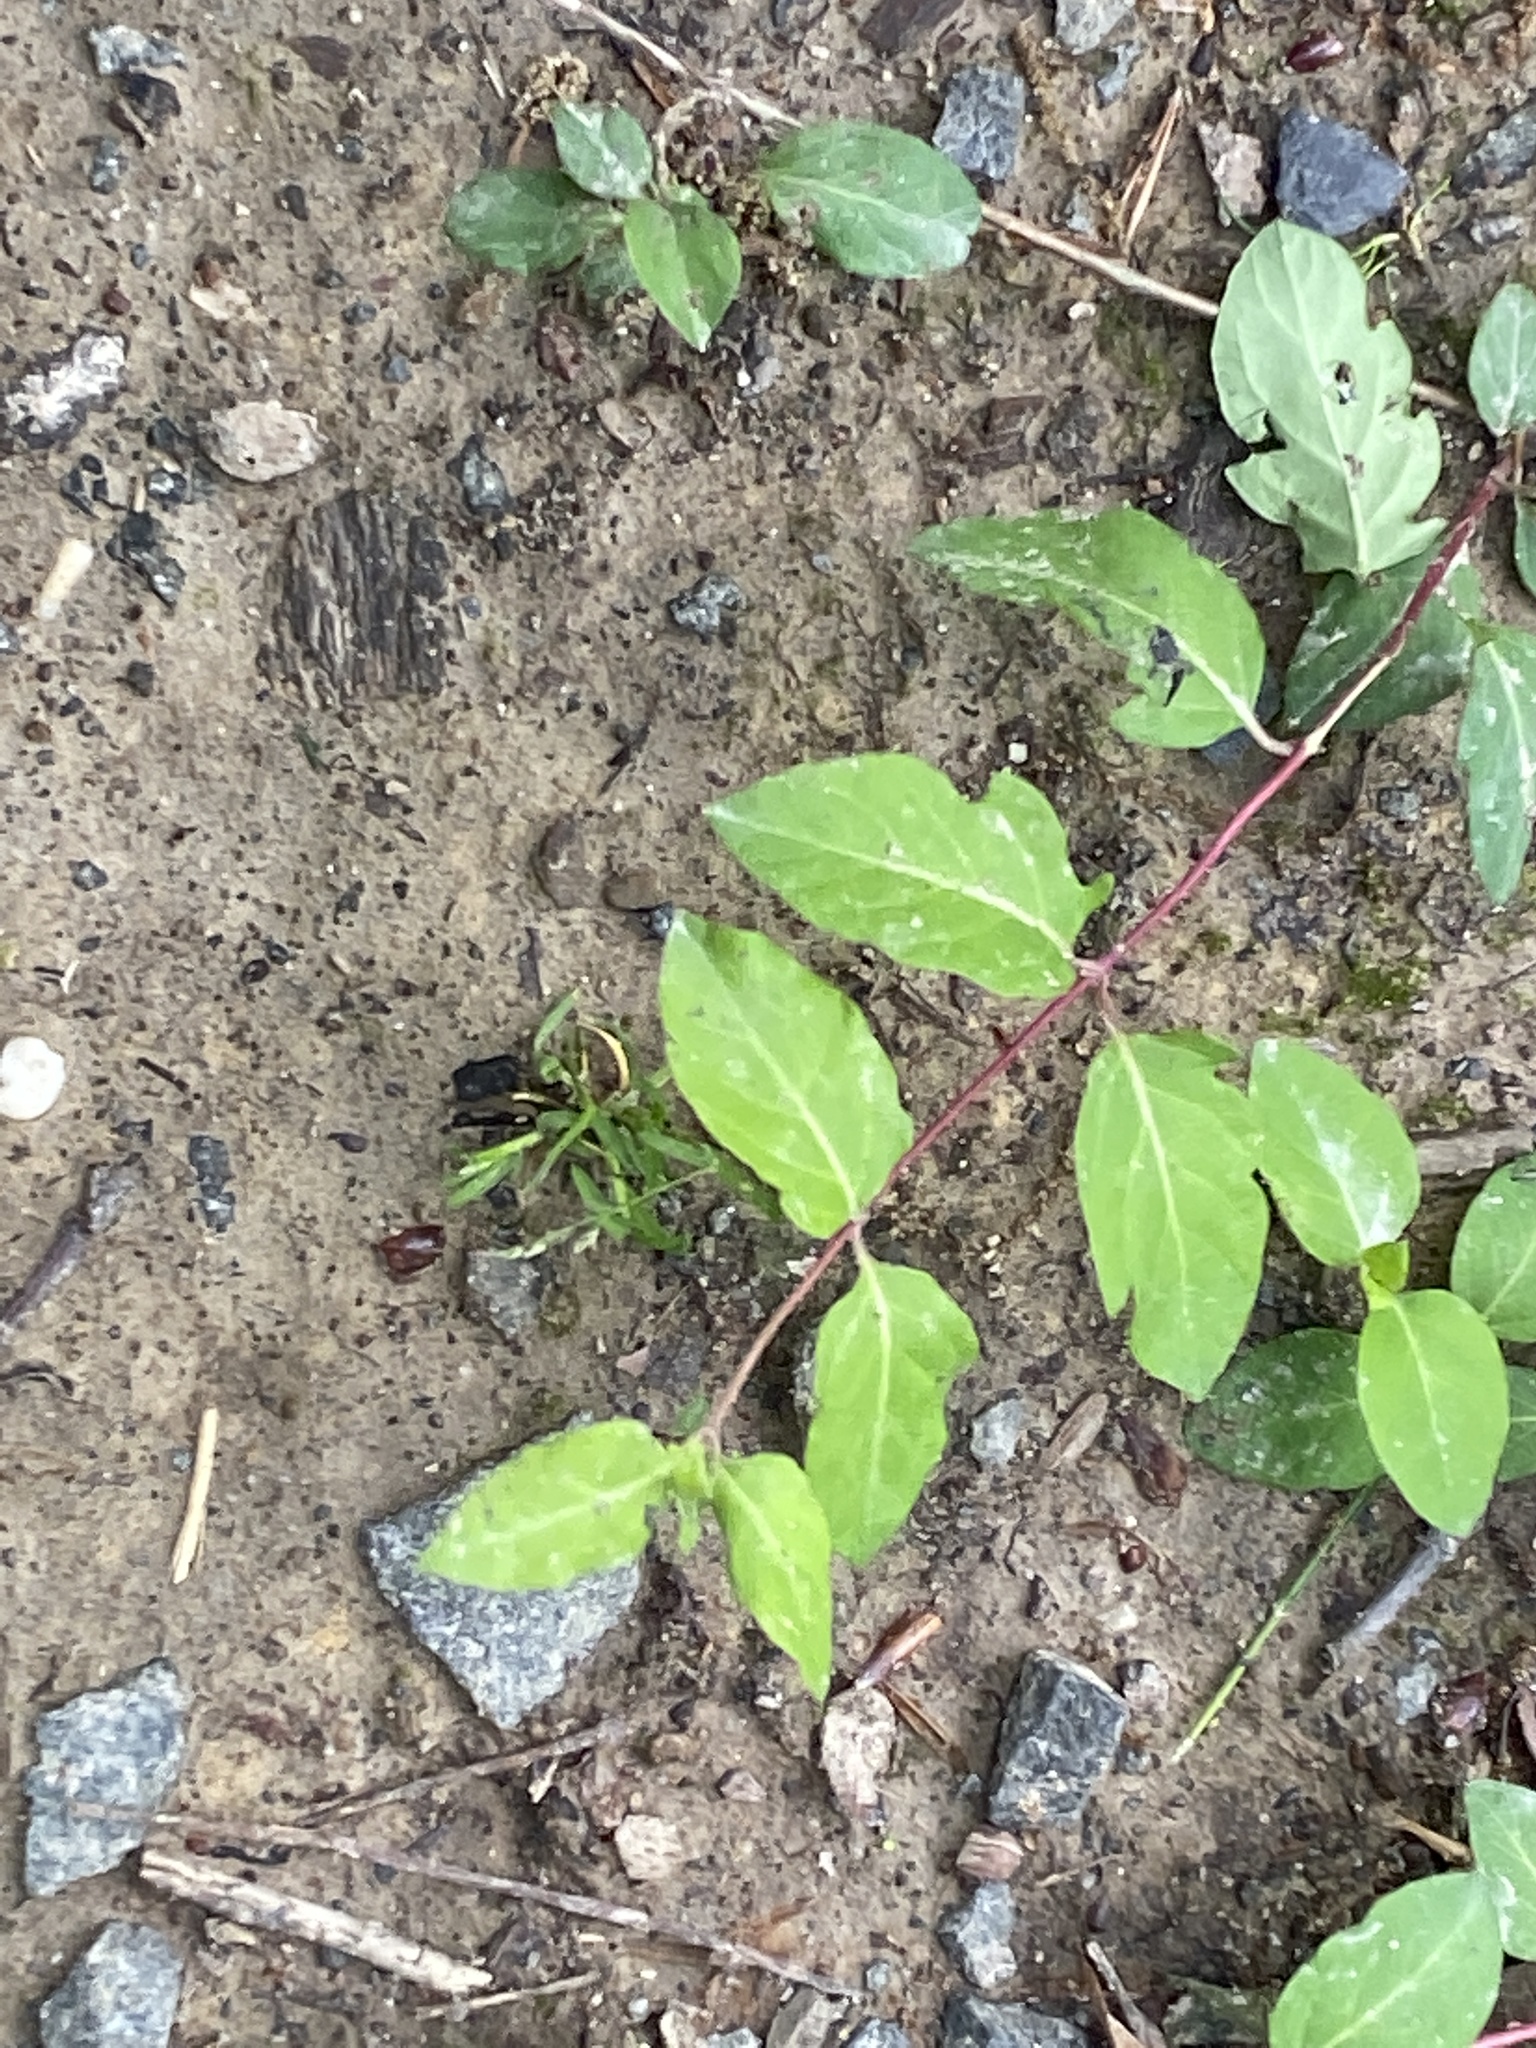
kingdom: Plantae
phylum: Tracheophyta
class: Magnoliopsida
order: Dipsacales
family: Caprifoliaceae
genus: Lonicera
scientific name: Lonicera japonica
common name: Japanese honeysuckle
